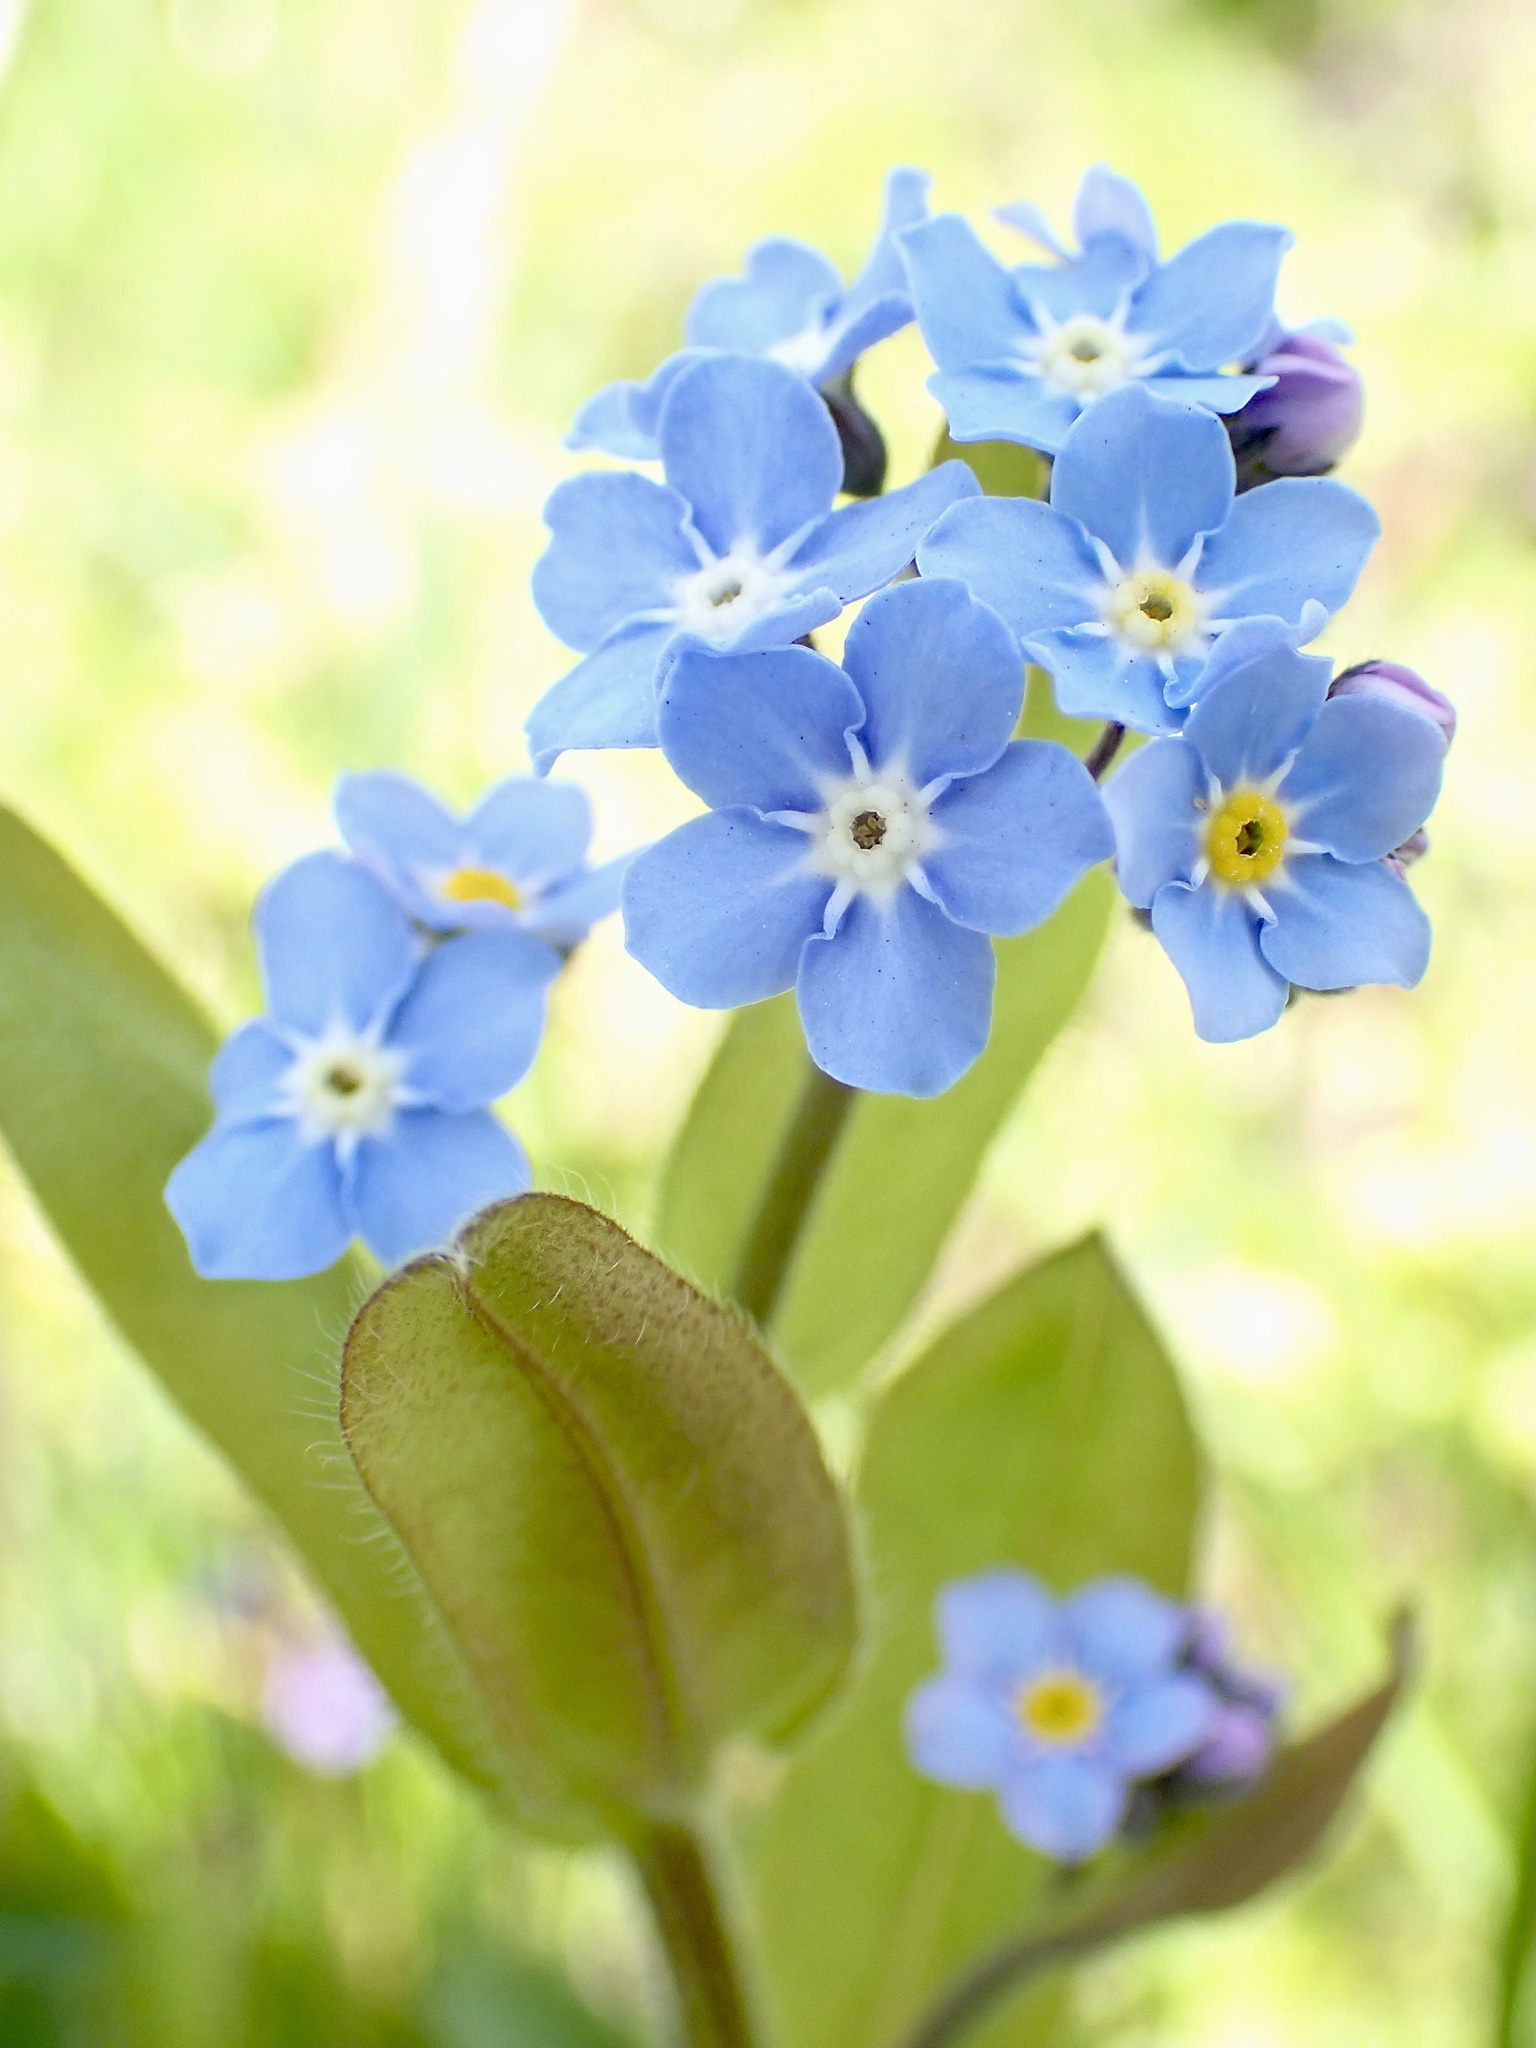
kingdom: Plantae
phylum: Tracheophyta
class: Magnoliopsida
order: Boraginales
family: Boraginaceae
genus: Myosotis
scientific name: Myosotis sylvatica
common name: Wood forget-me-not
